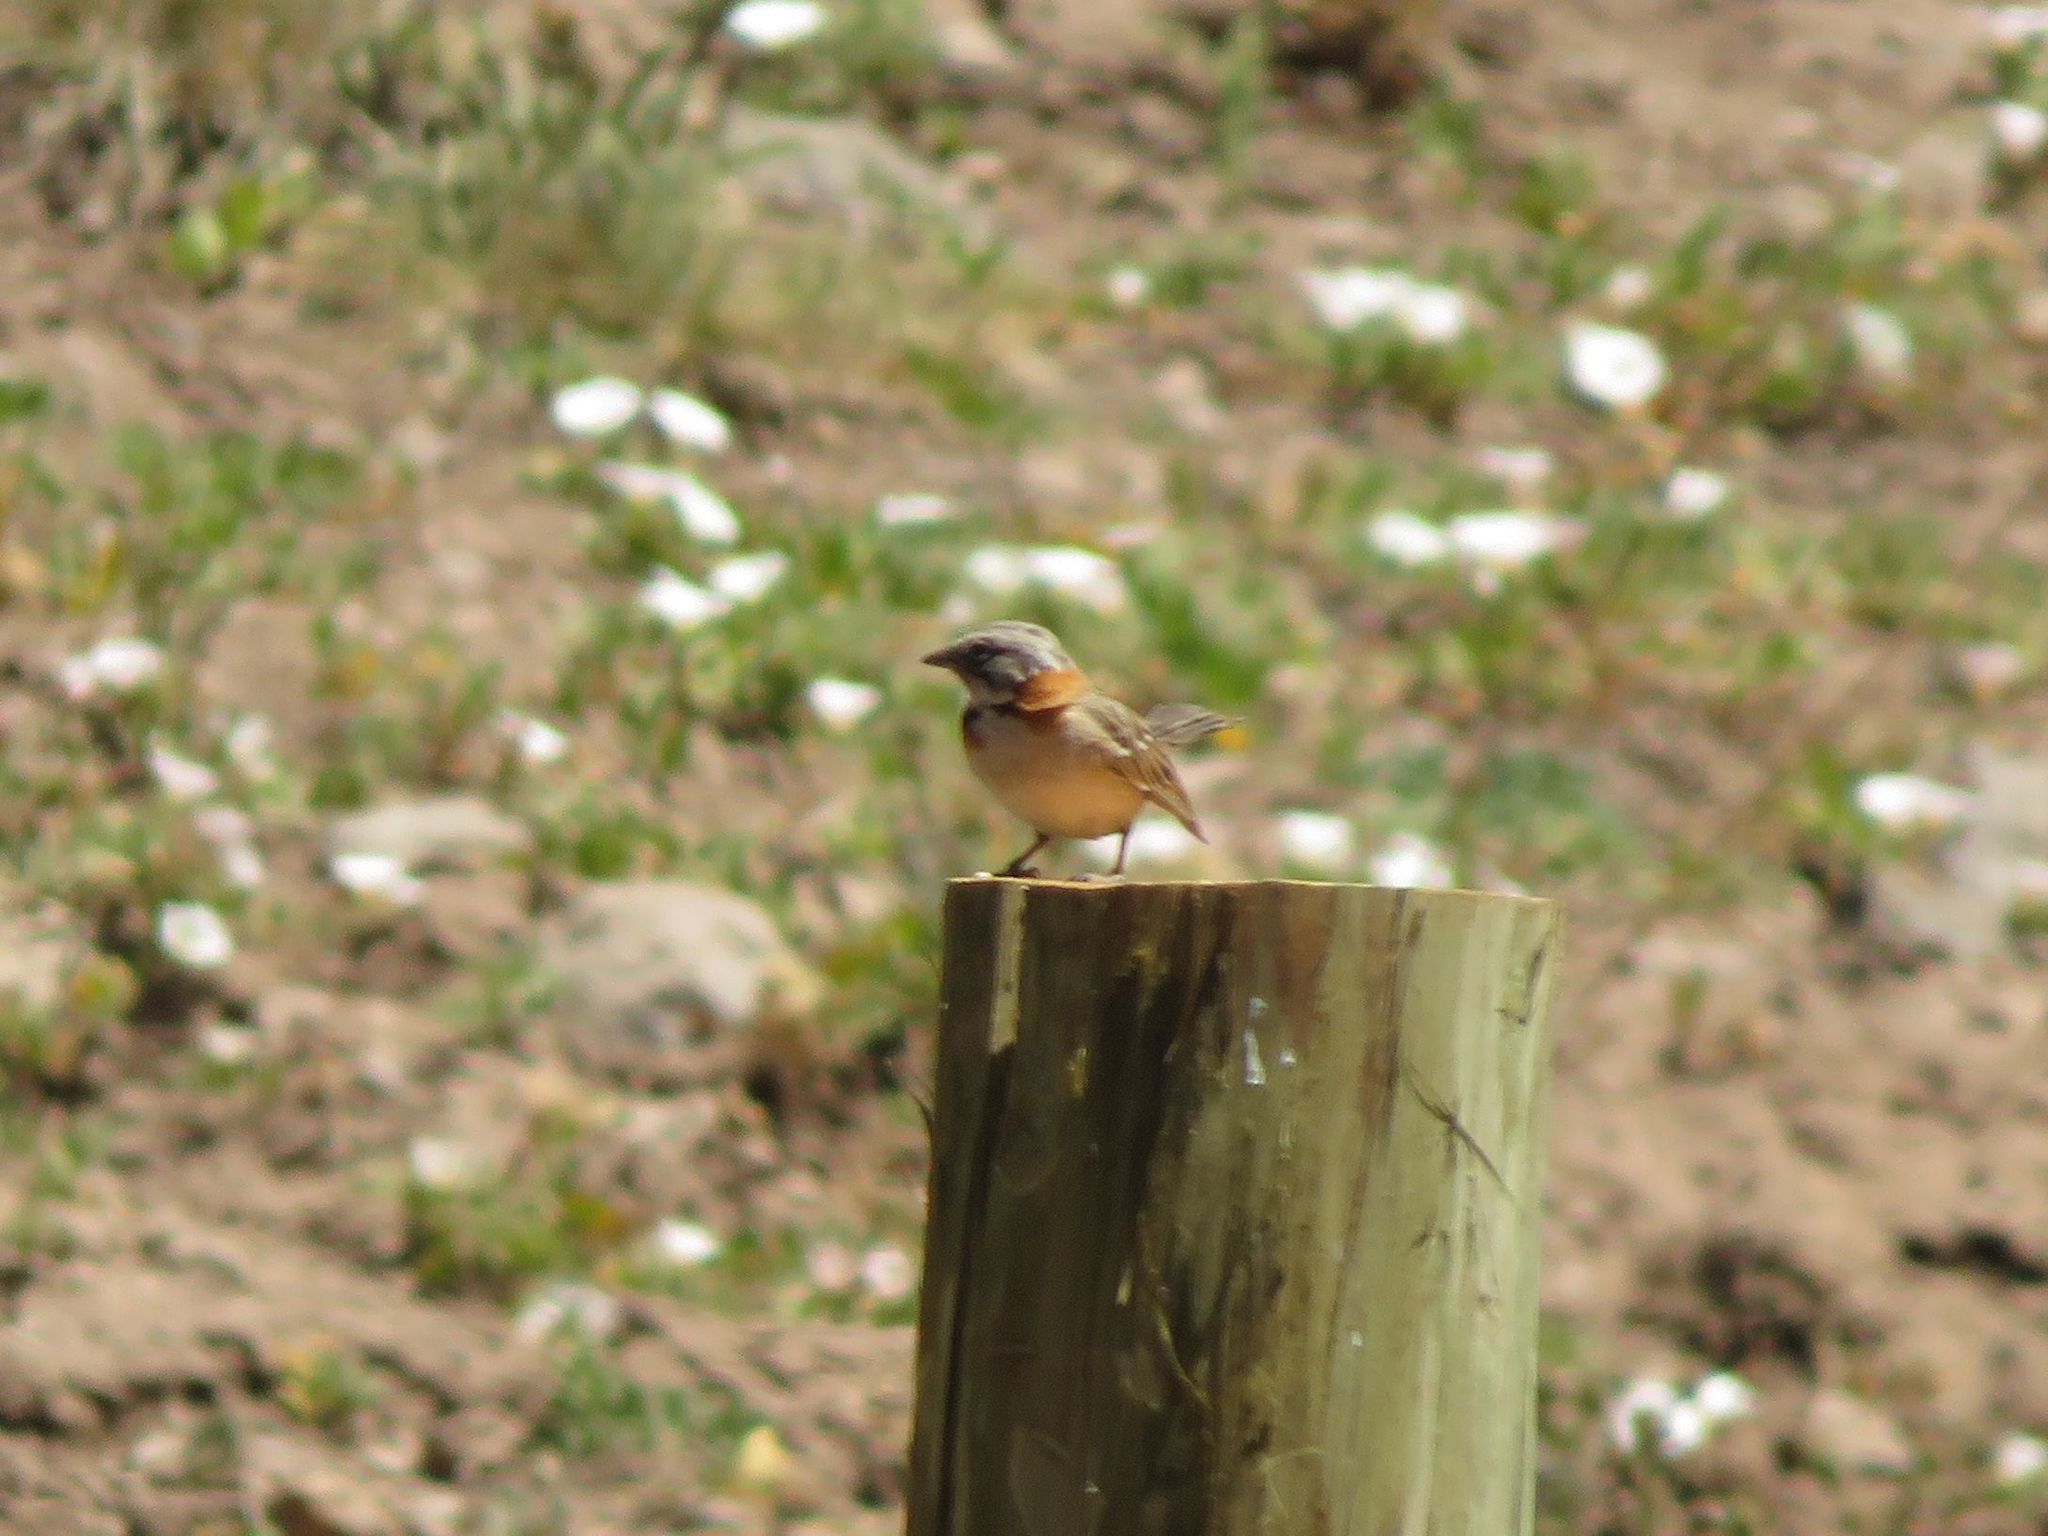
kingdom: Animalia
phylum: Chordata
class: Aves
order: Passeriformes
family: Passerellidae
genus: Zonotrichia
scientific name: Zonotrichia capensis
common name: Rufous-collared sparrow
